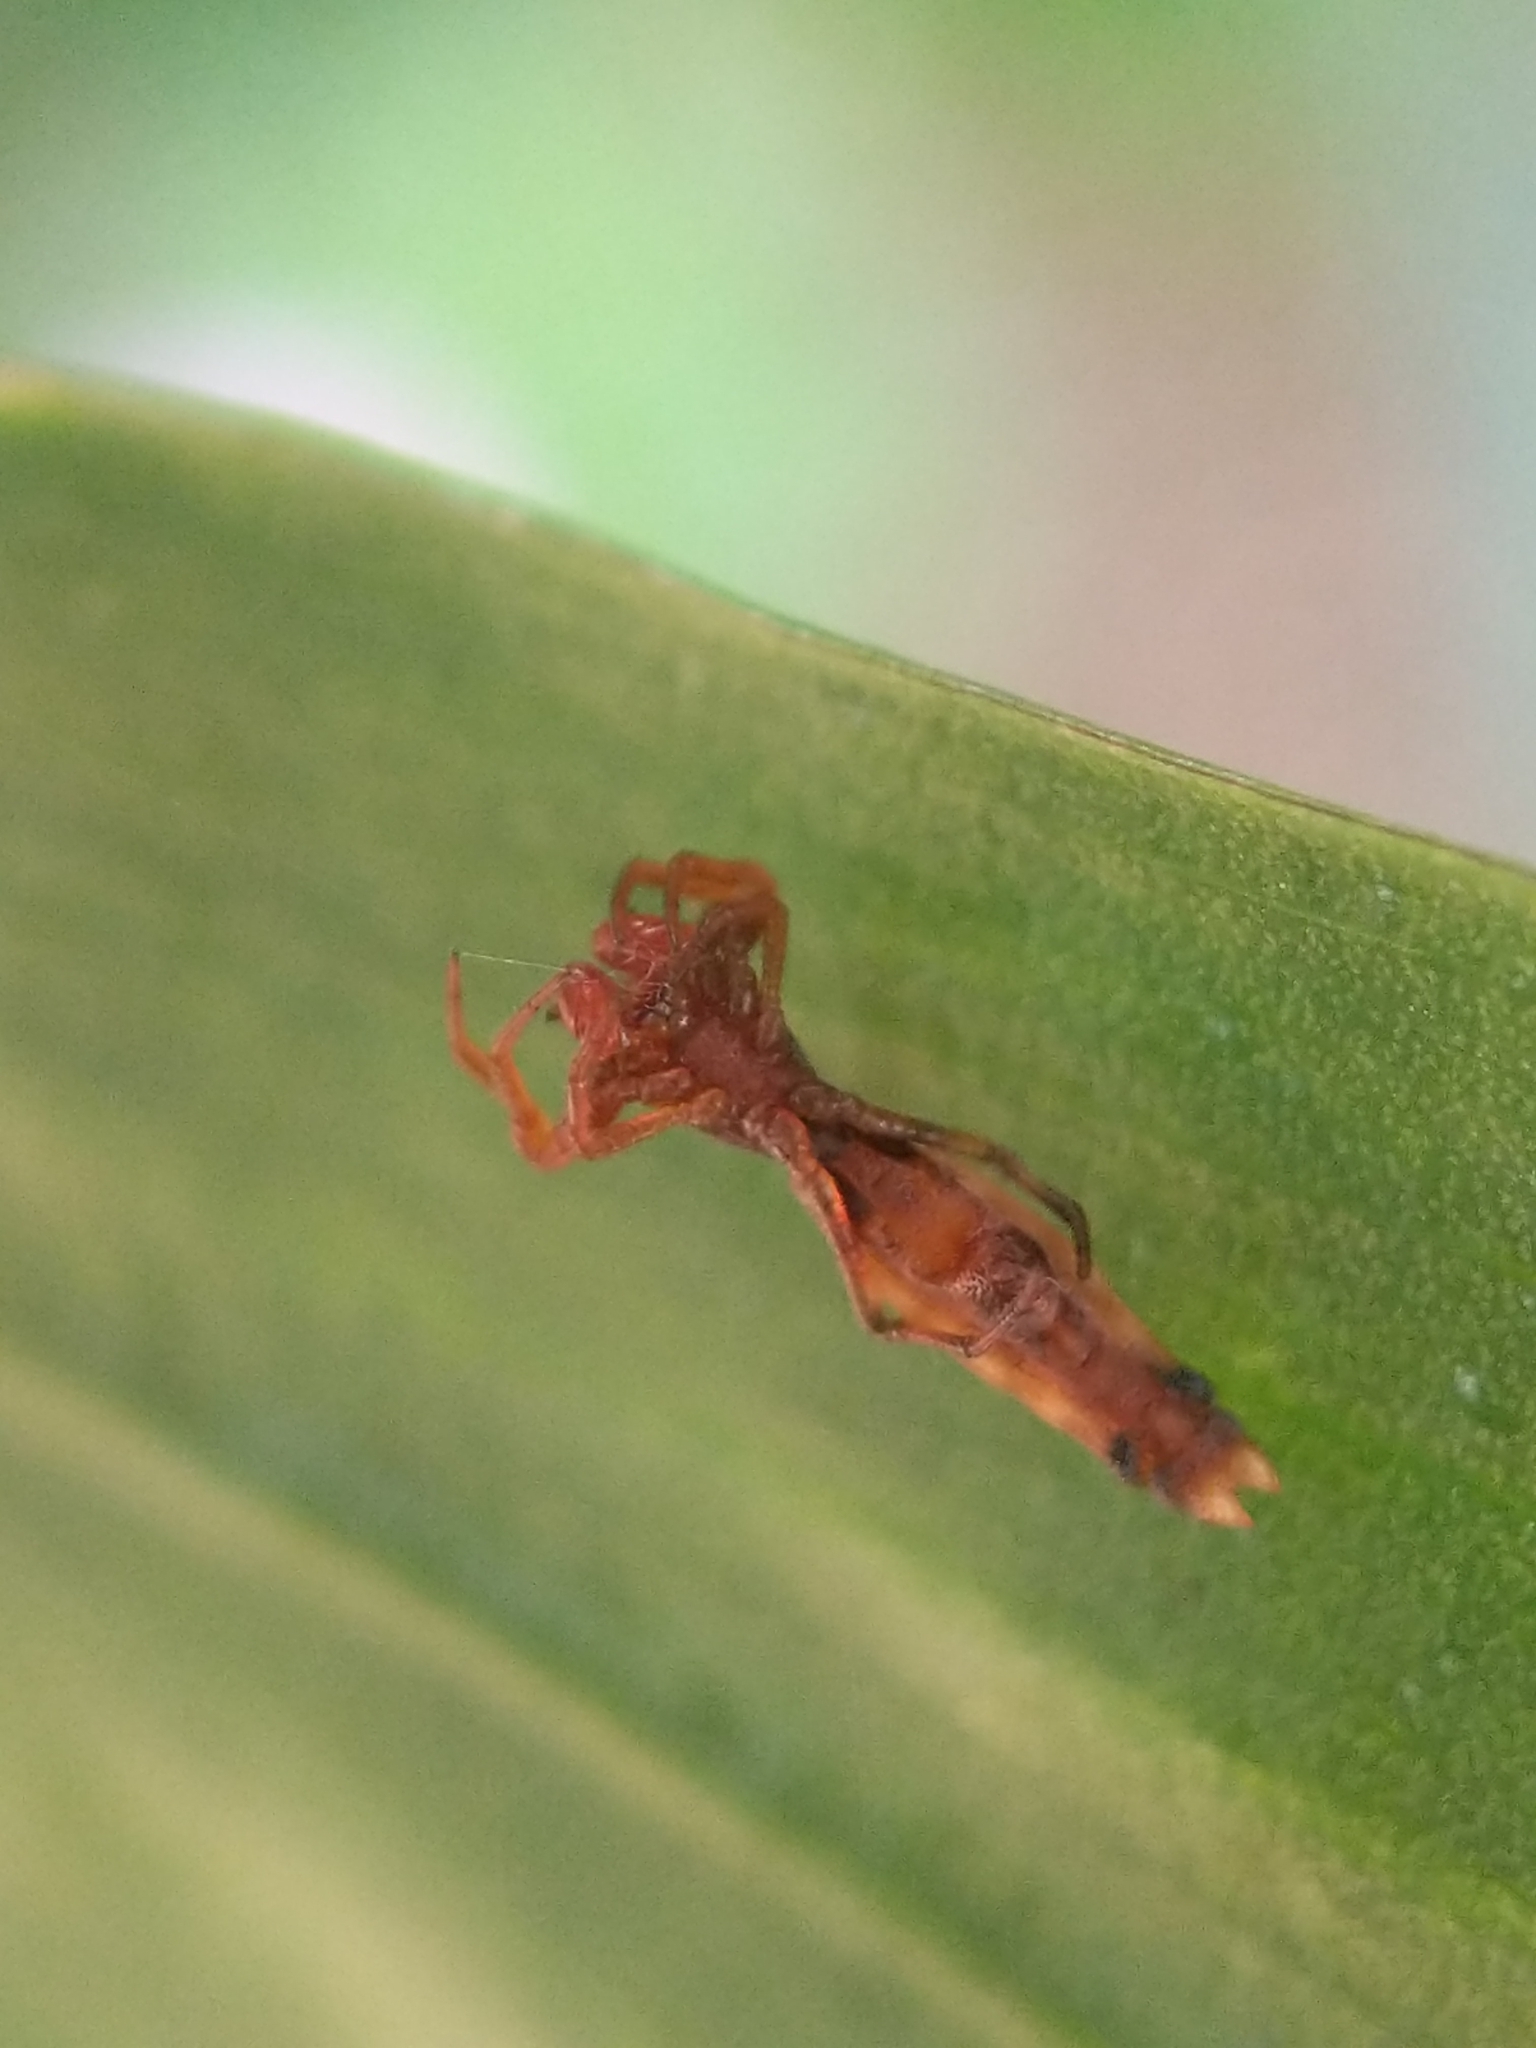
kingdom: Animalia
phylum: Arthropoda
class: Arachnida
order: Araneae
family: Araneidae
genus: Micrathena
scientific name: Micrathena gracilis
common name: Orb weavers
